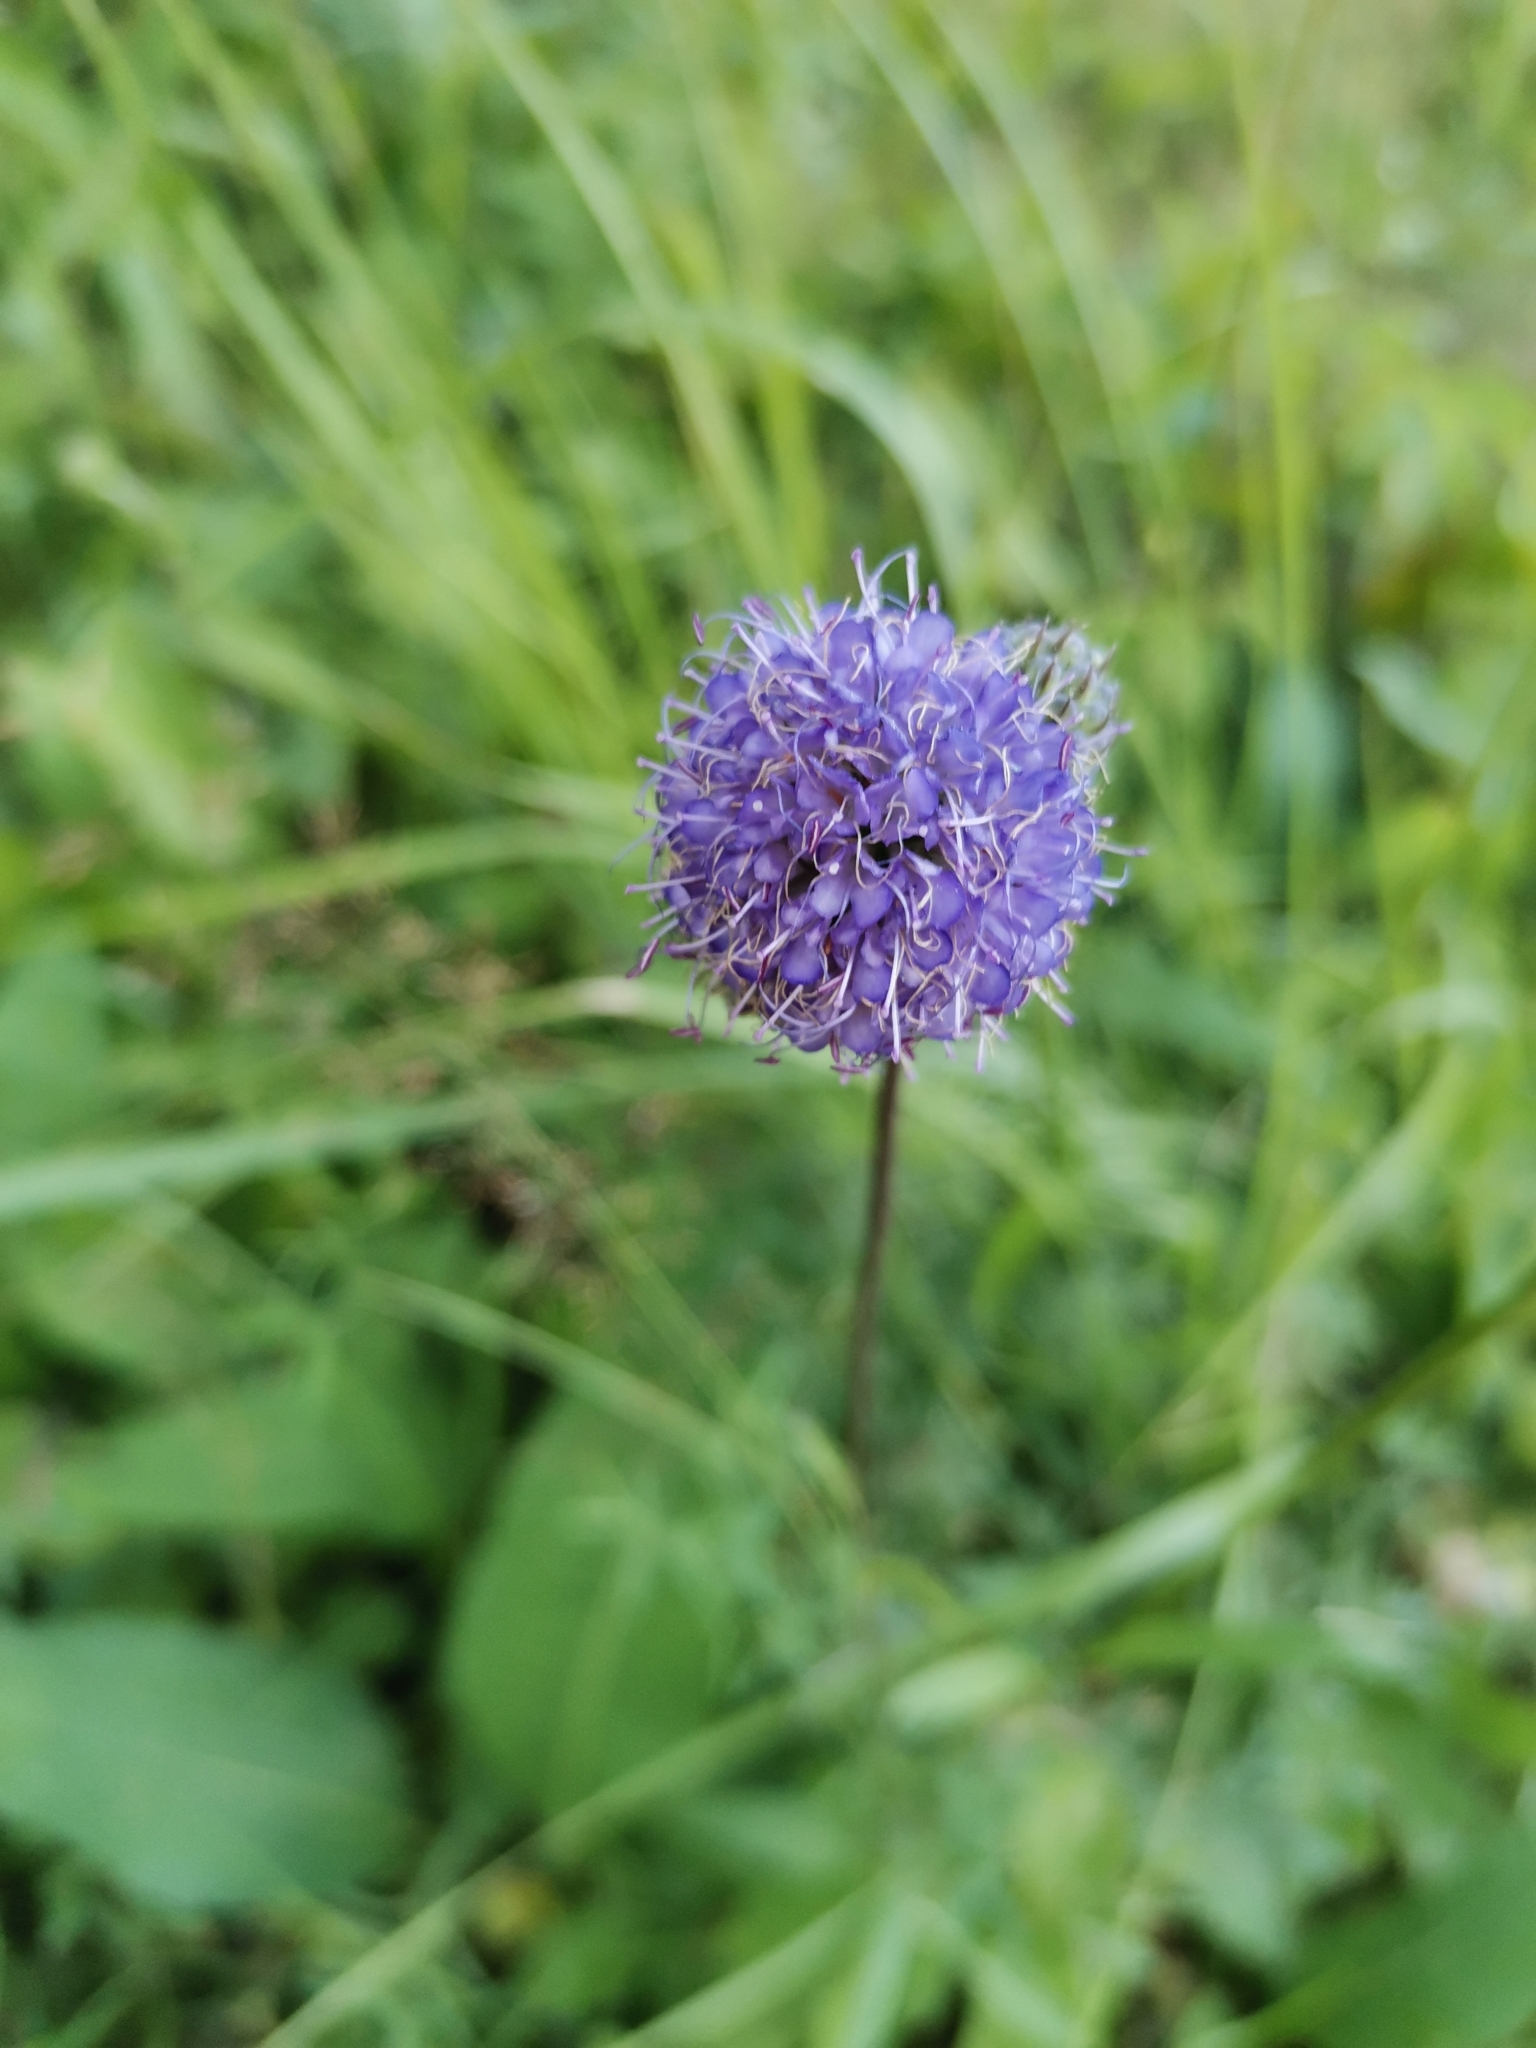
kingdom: Plantae
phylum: Tracheophyta
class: Magnoliopsida
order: Dipsacales
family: Caprifoliaceae
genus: Succisa
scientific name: Succisa pratensis
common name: Devil's-bit
